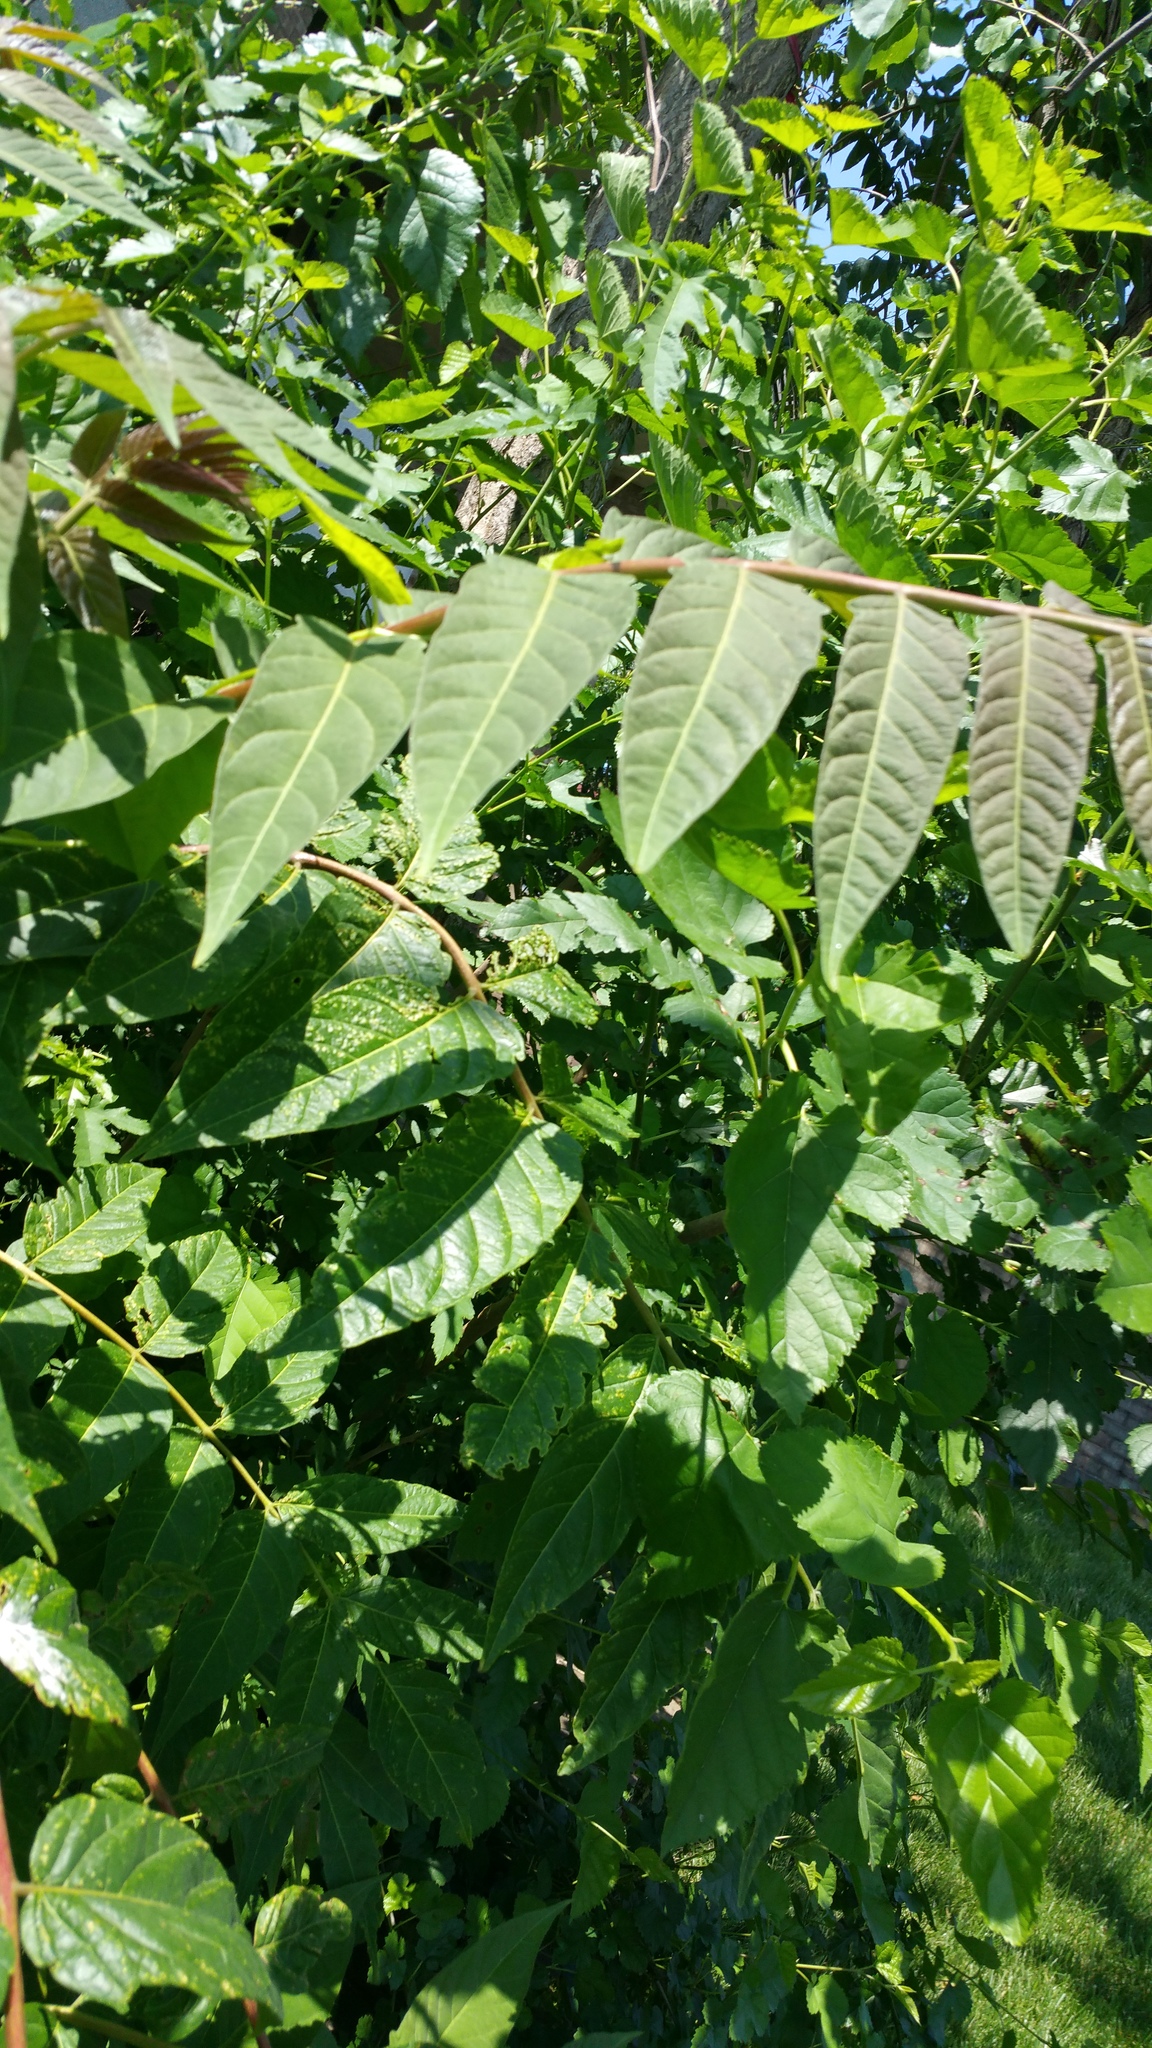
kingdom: Plantae
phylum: Tracheophyta
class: Magnoliopsida
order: Sapindales
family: Simaroubaceae
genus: Ailanthus
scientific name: Ailanthus altissima
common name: Tree-of-heaven
